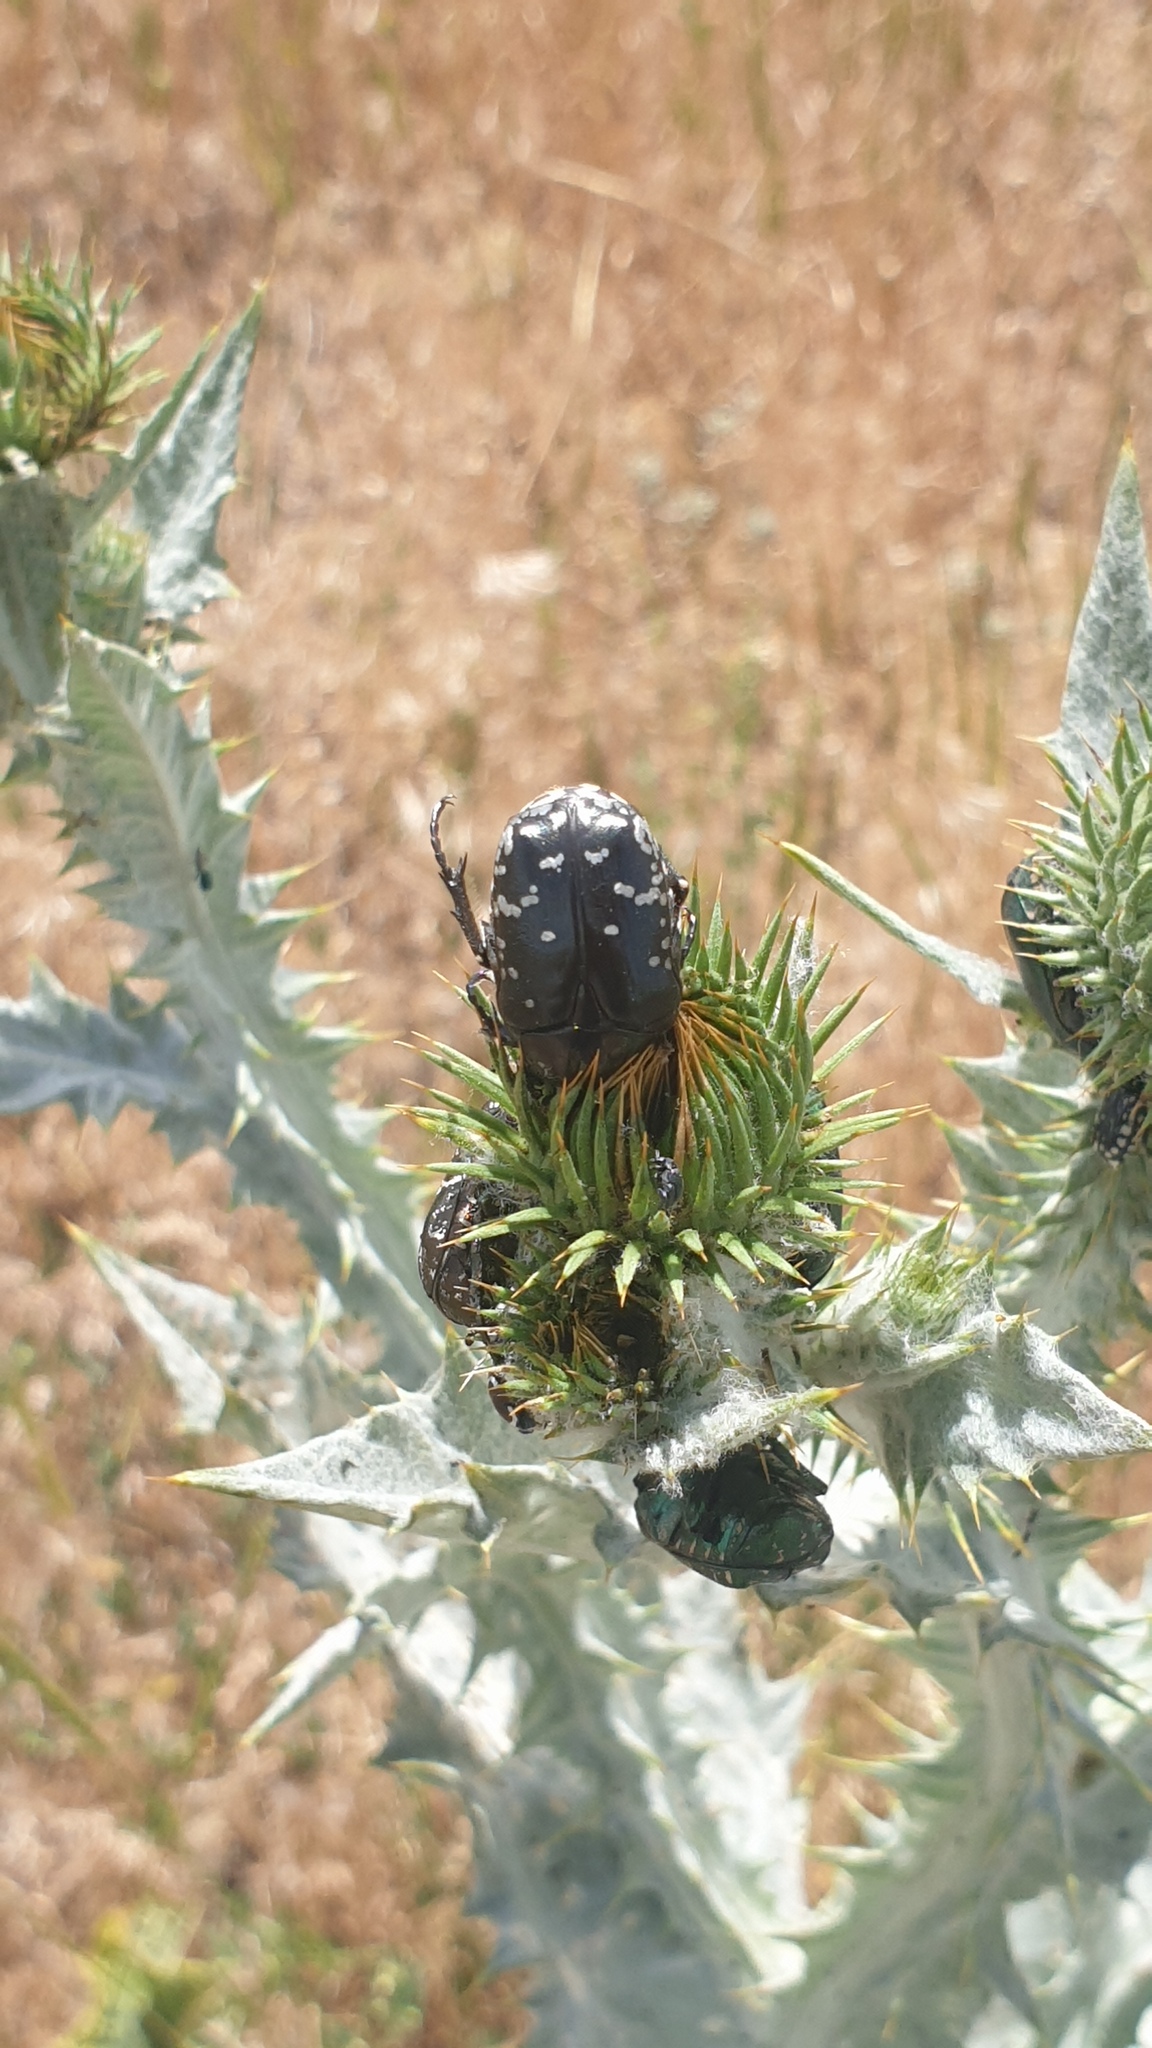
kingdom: Animalia
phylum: Arthropoda
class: Insecta
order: Coleoptera
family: Scarabaeidae
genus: Oxythyrea
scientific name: Oxythyrea cinctella
